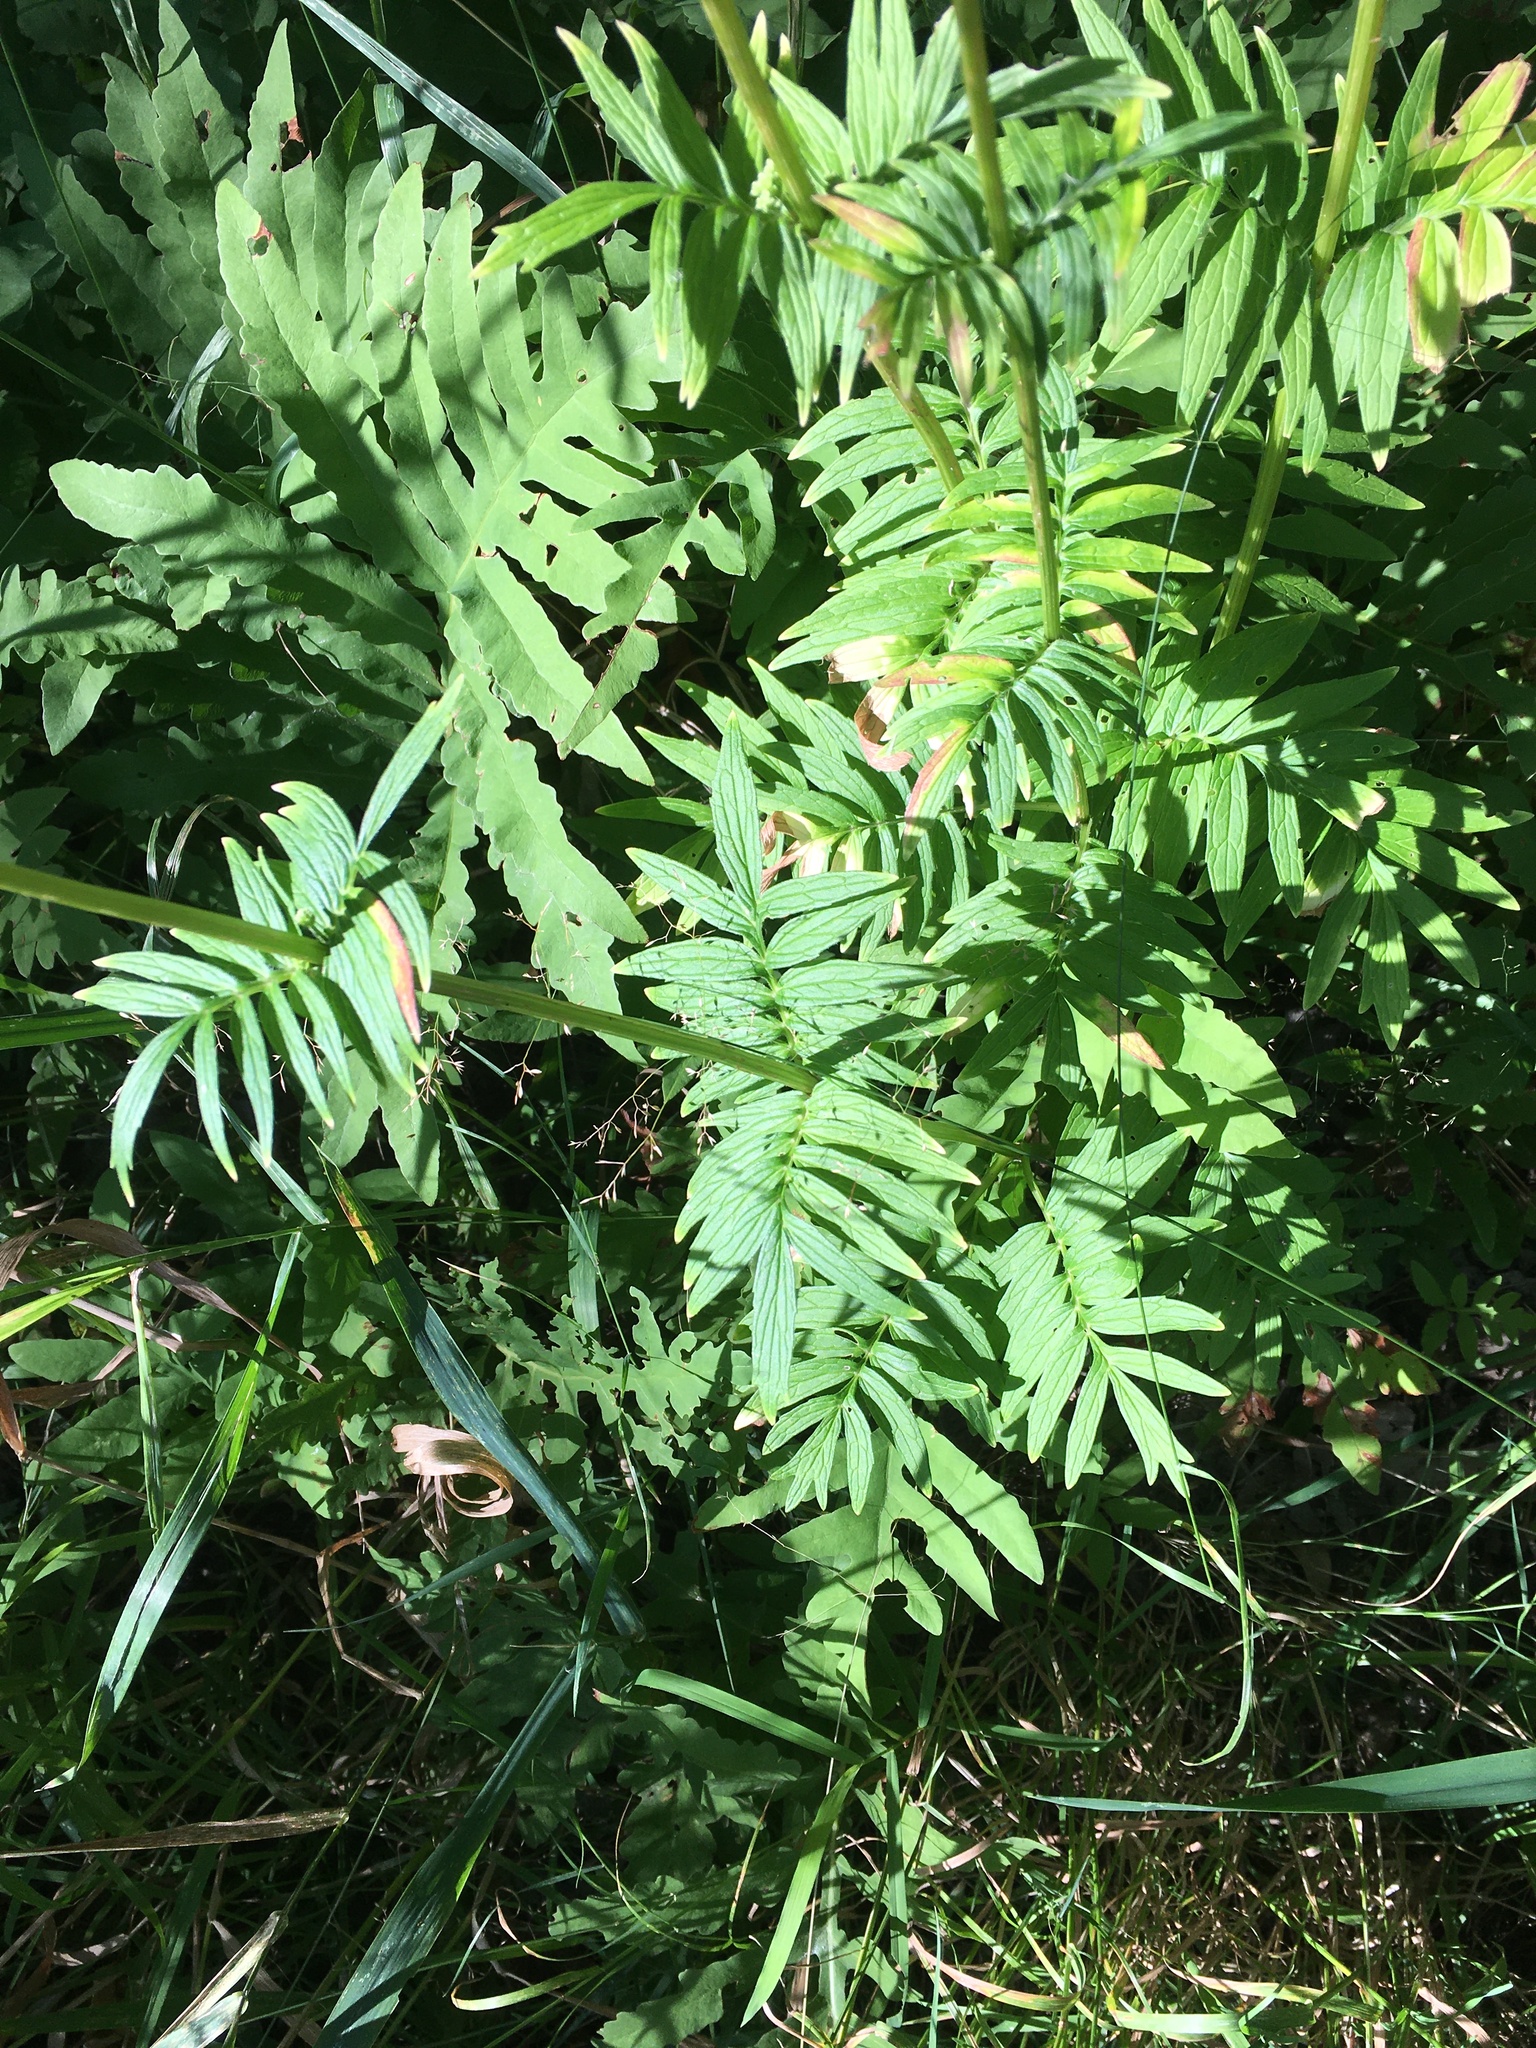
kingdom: Plantae
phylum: Tracheophyta
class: Magnoliopsida
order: Dipsacales
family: Caprifoliaceae
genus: Valeriana
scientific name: Valeriana officinalis
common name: Common valerian
